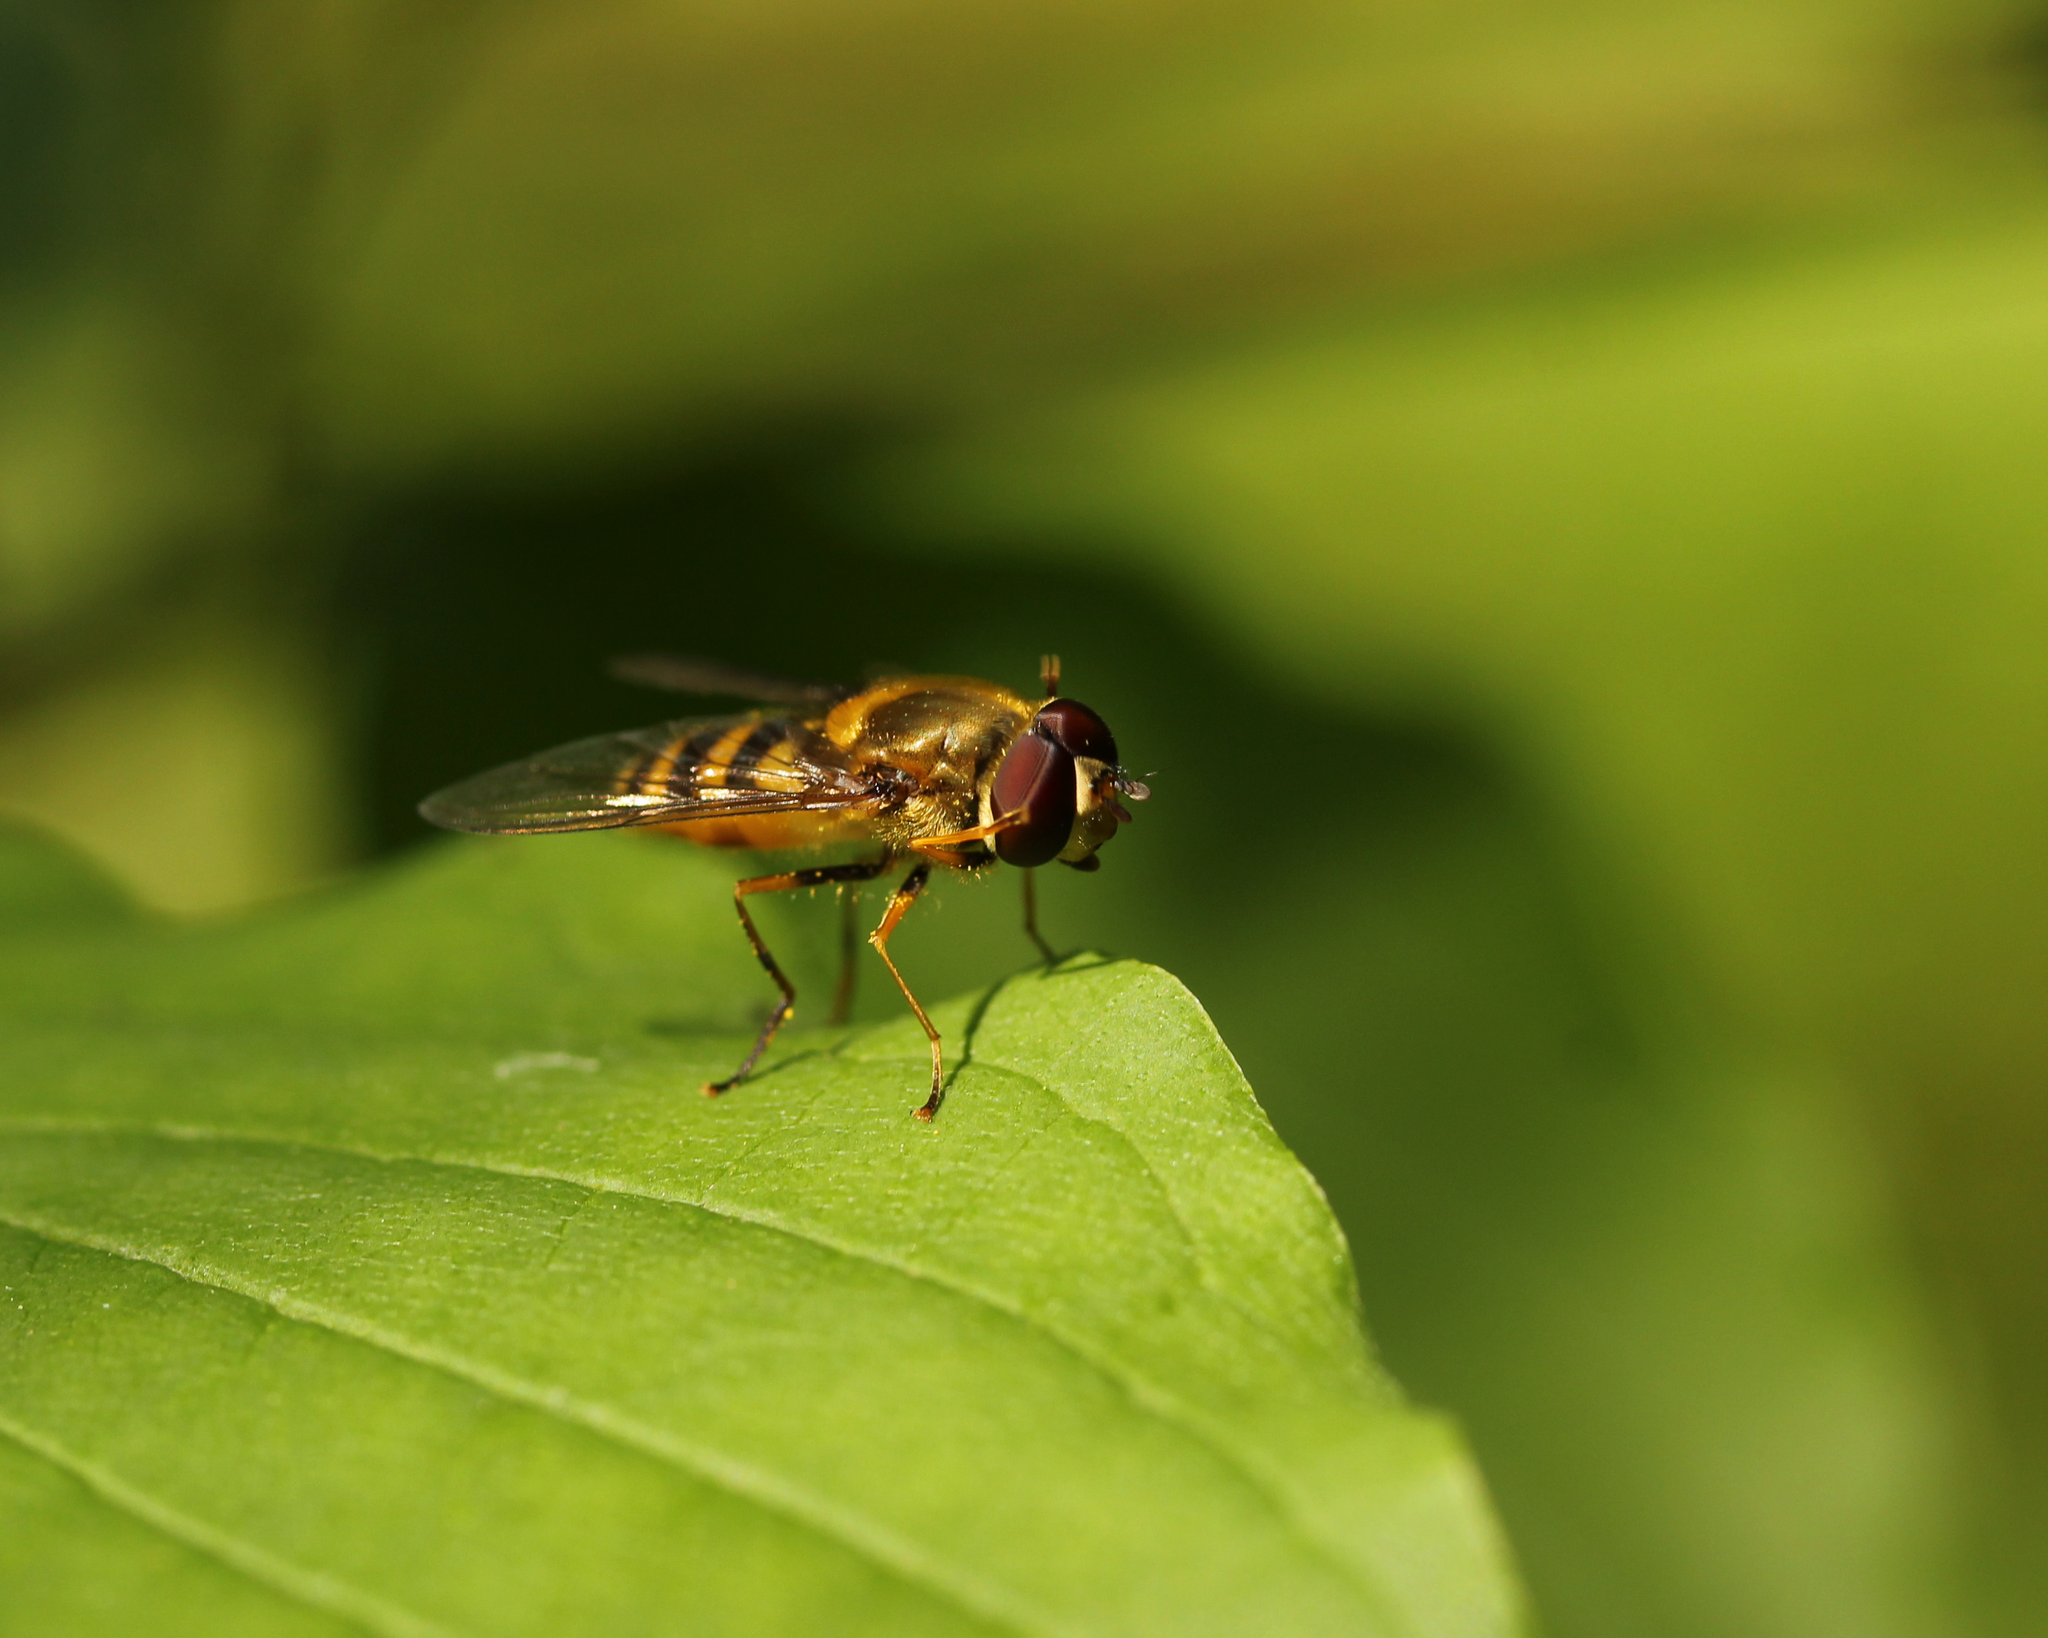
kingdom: Animalia
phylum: Arthropoda
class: Insecta
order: Diptera
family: Syrphidae
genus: Syrphus
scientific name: Syrphus ribesii
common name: Common flower fly
